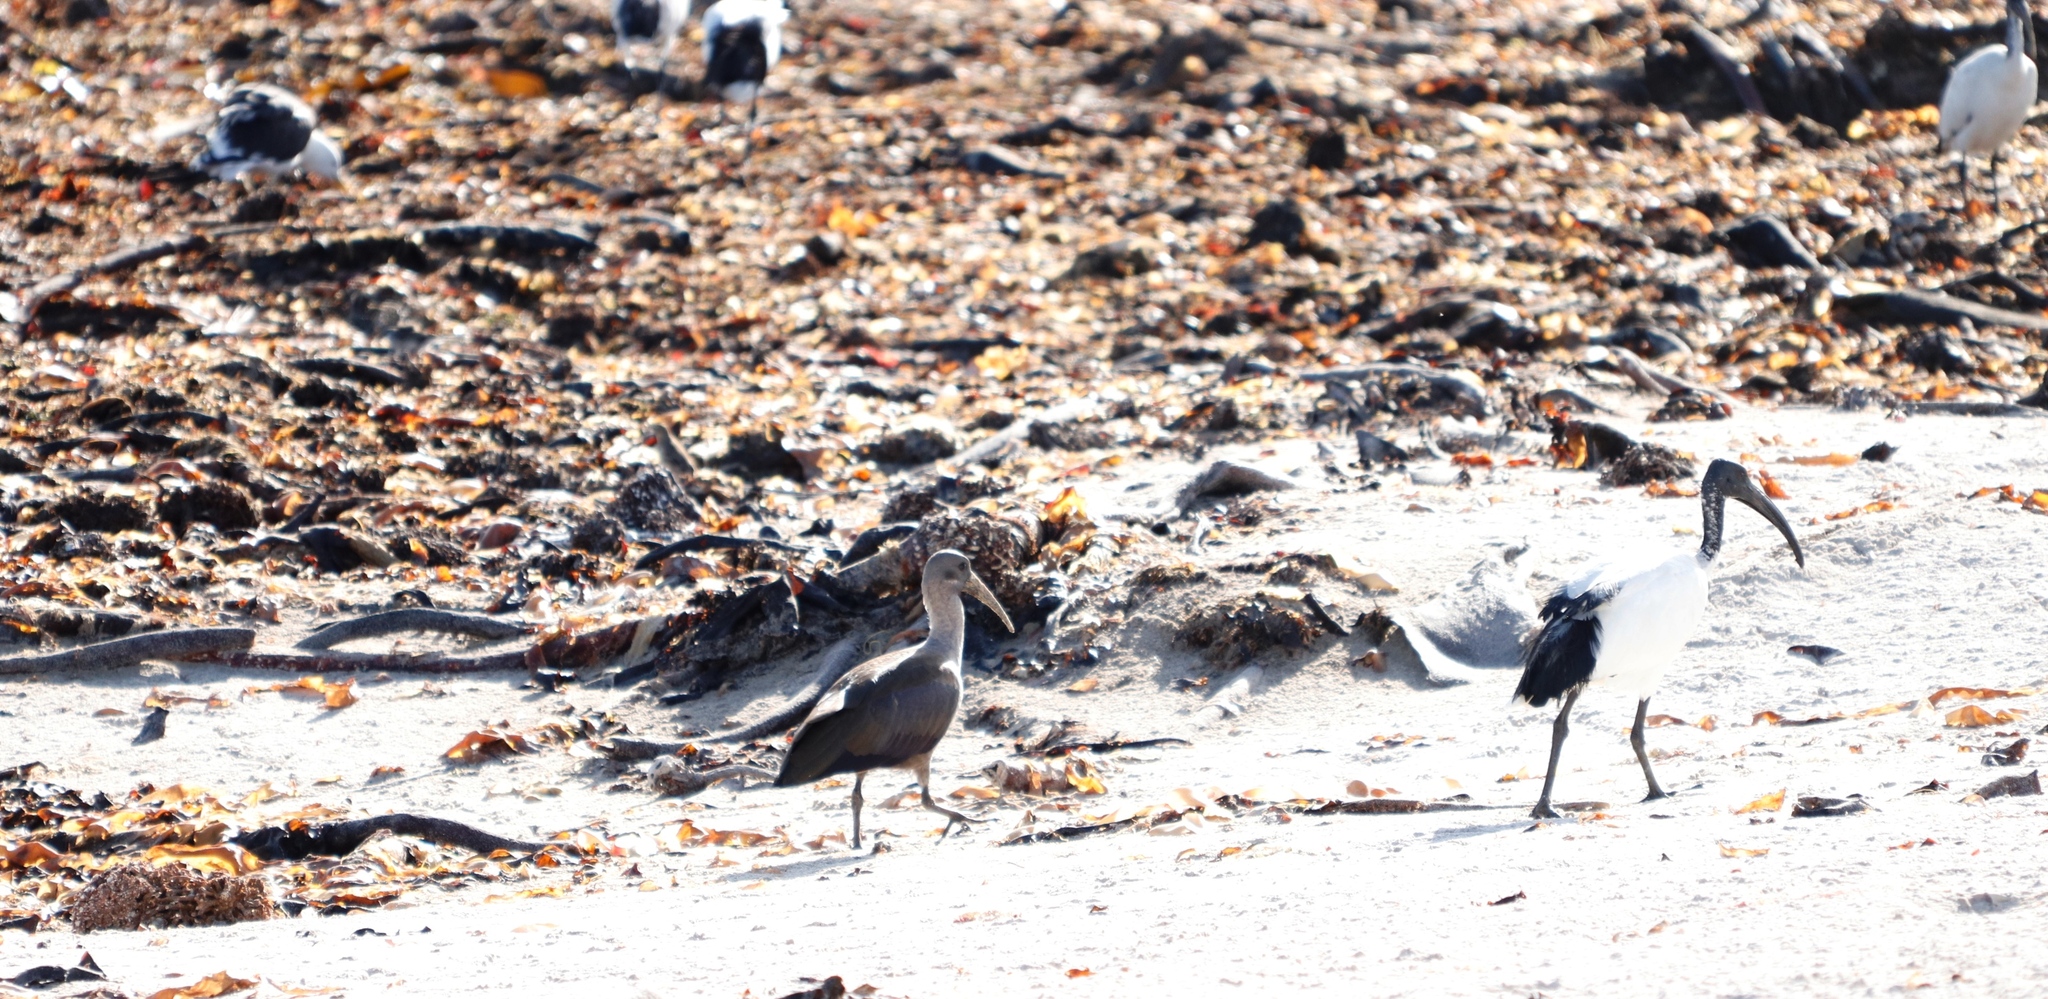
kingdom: Animalia
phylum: Chordata
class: Aves
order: Pelecaniformes
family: Threskiornithidae
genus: Bostrychia
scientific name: Bostrychia hagedash
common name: Hadada ibis
